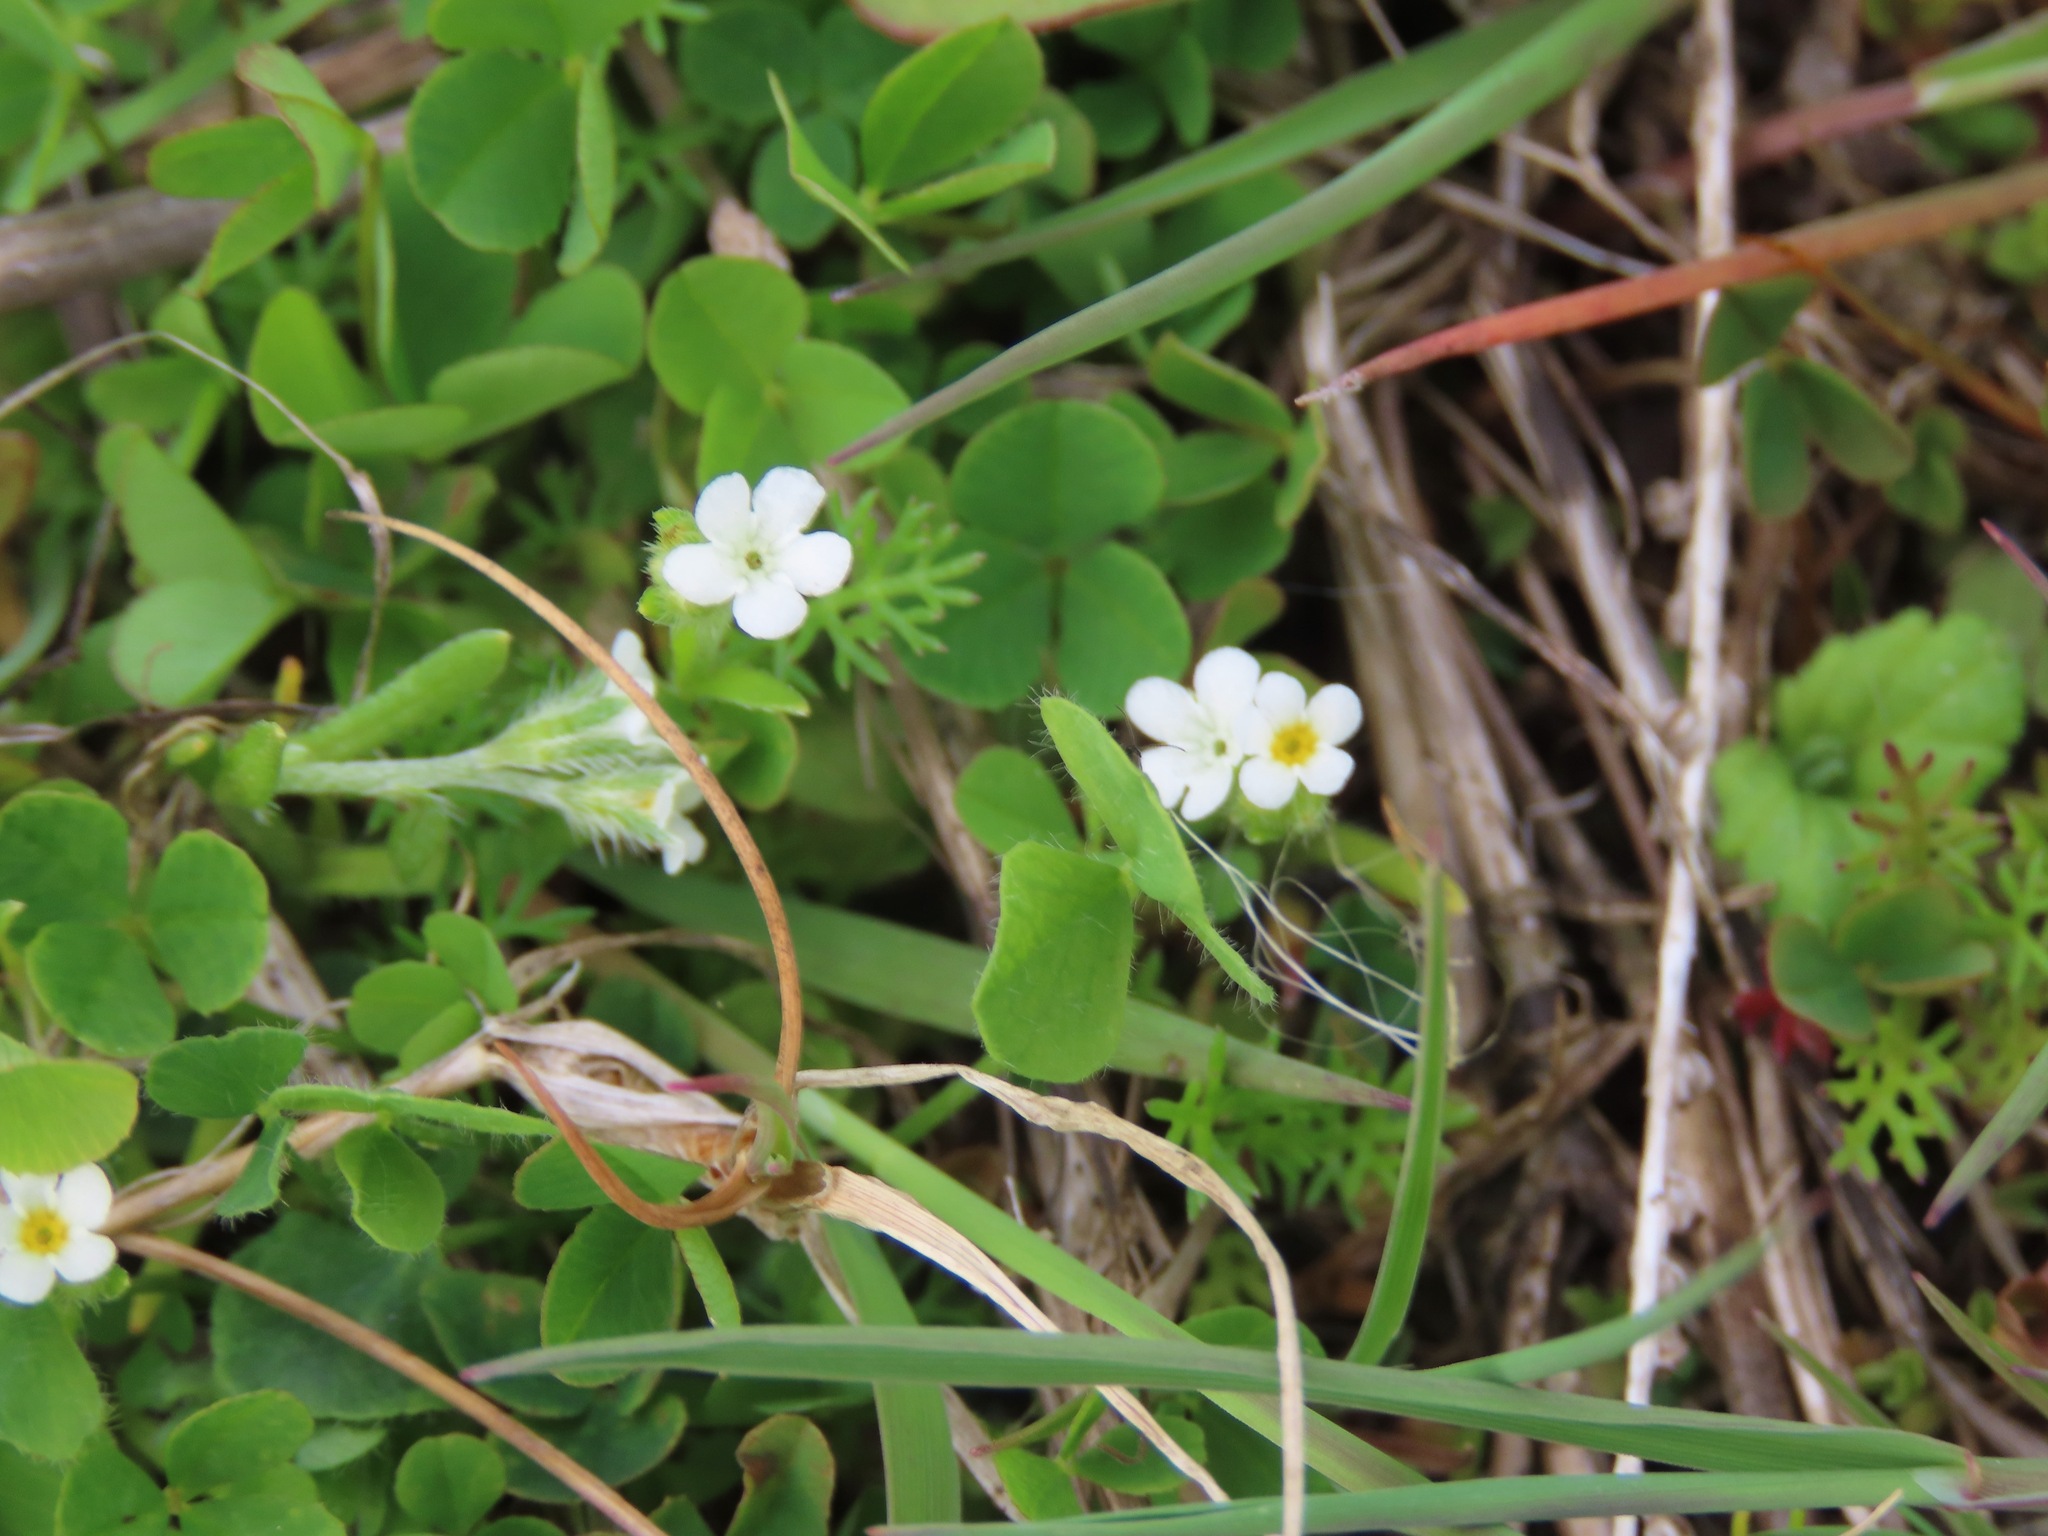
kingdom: Plantae
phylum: Tracheophyta
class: Magnoliopsida
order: Boraginales
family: Boraginaceae
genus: Plagiobothrys
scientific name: Plagiobothrys scouleri
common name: White forget-me-not
